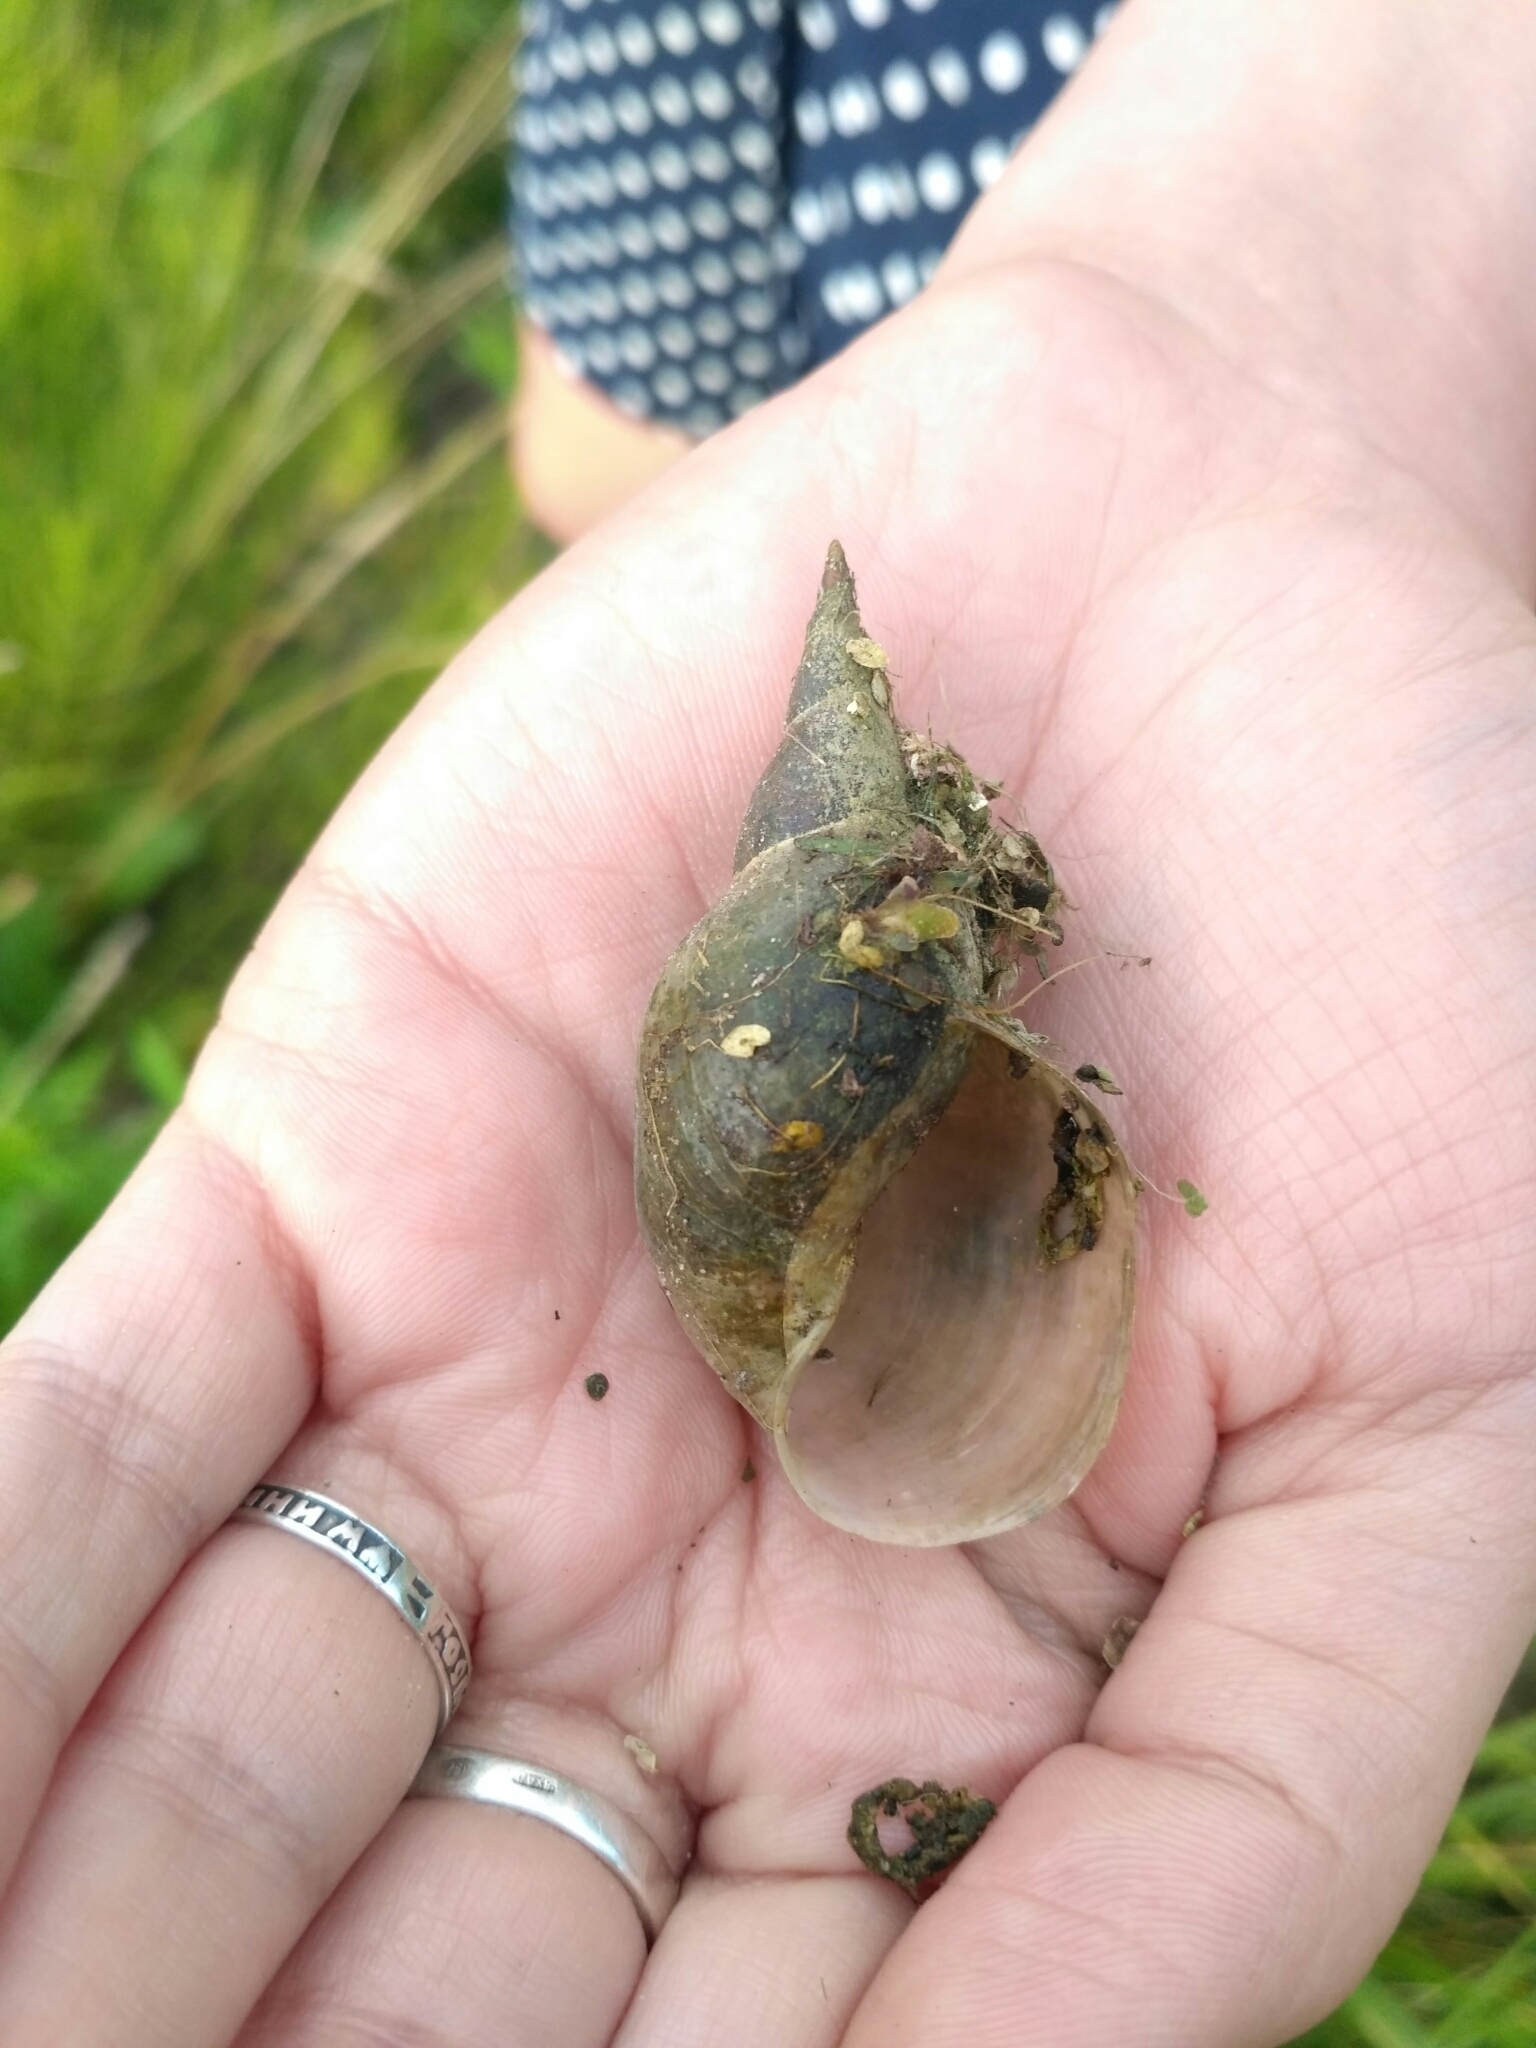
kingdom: Animalia
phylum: Mollusca
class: Gastropoda
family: Lymnaeidae
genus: Lymnaea
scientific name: Lymnaea stagnalis
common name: Great pond snail
